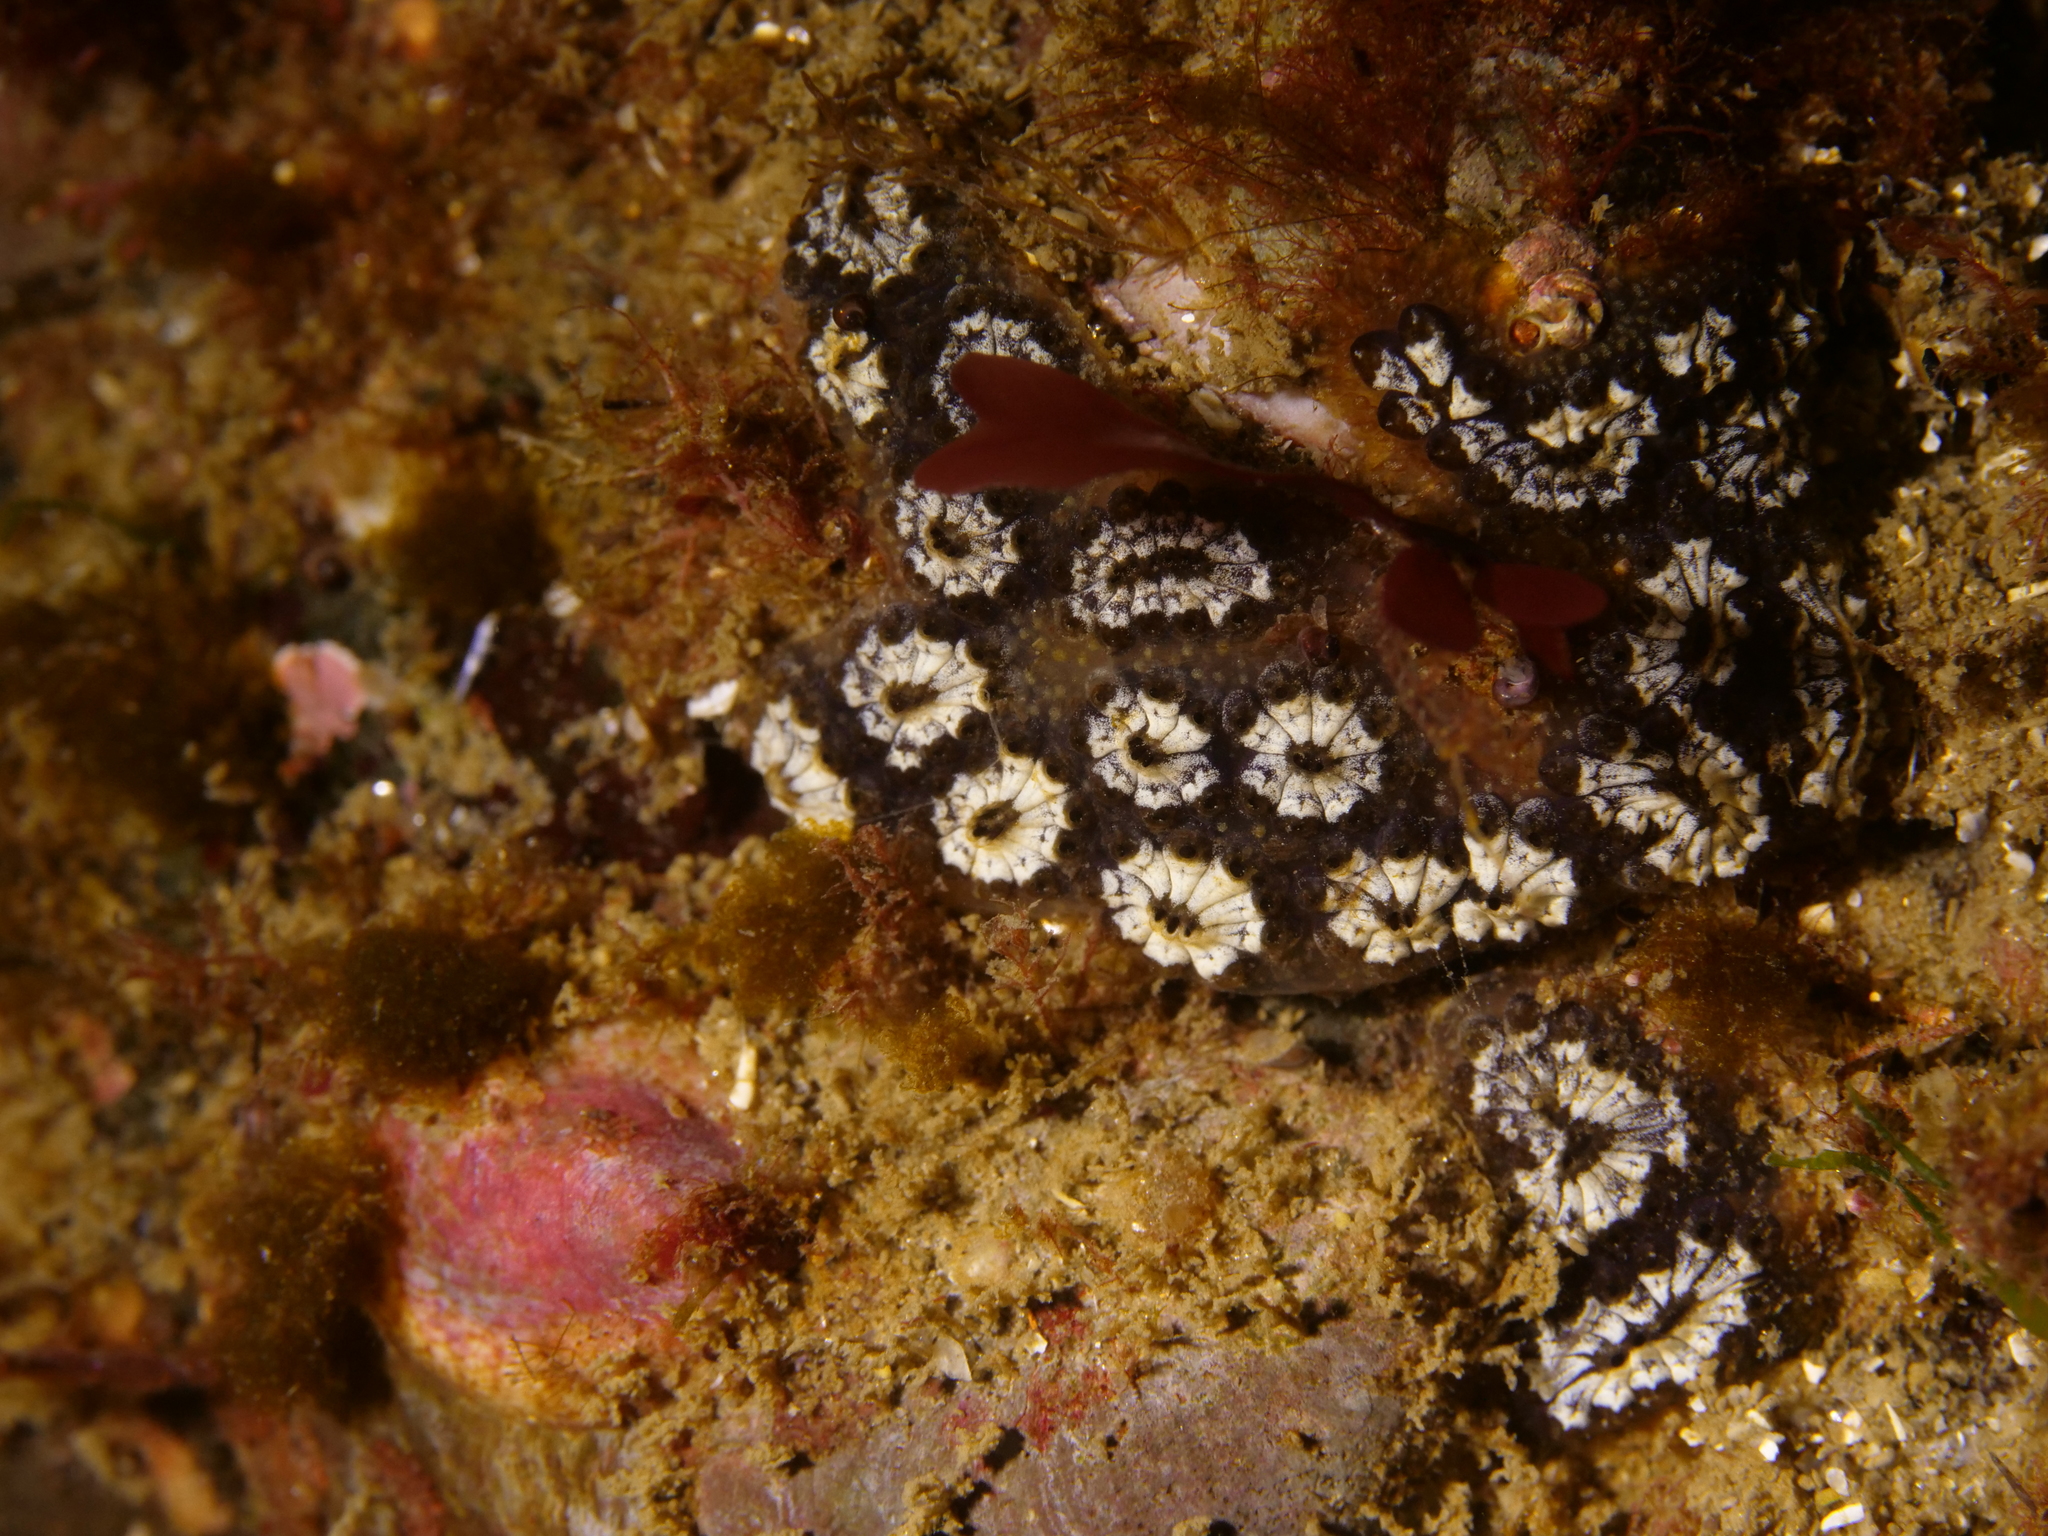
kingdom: Animalia
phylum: Chordata
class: Ascidiacea
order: Stolidobranchia
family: Styelidae
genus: Botryllus
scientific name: Botryllus schlosseri
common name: Golden star tunicate
